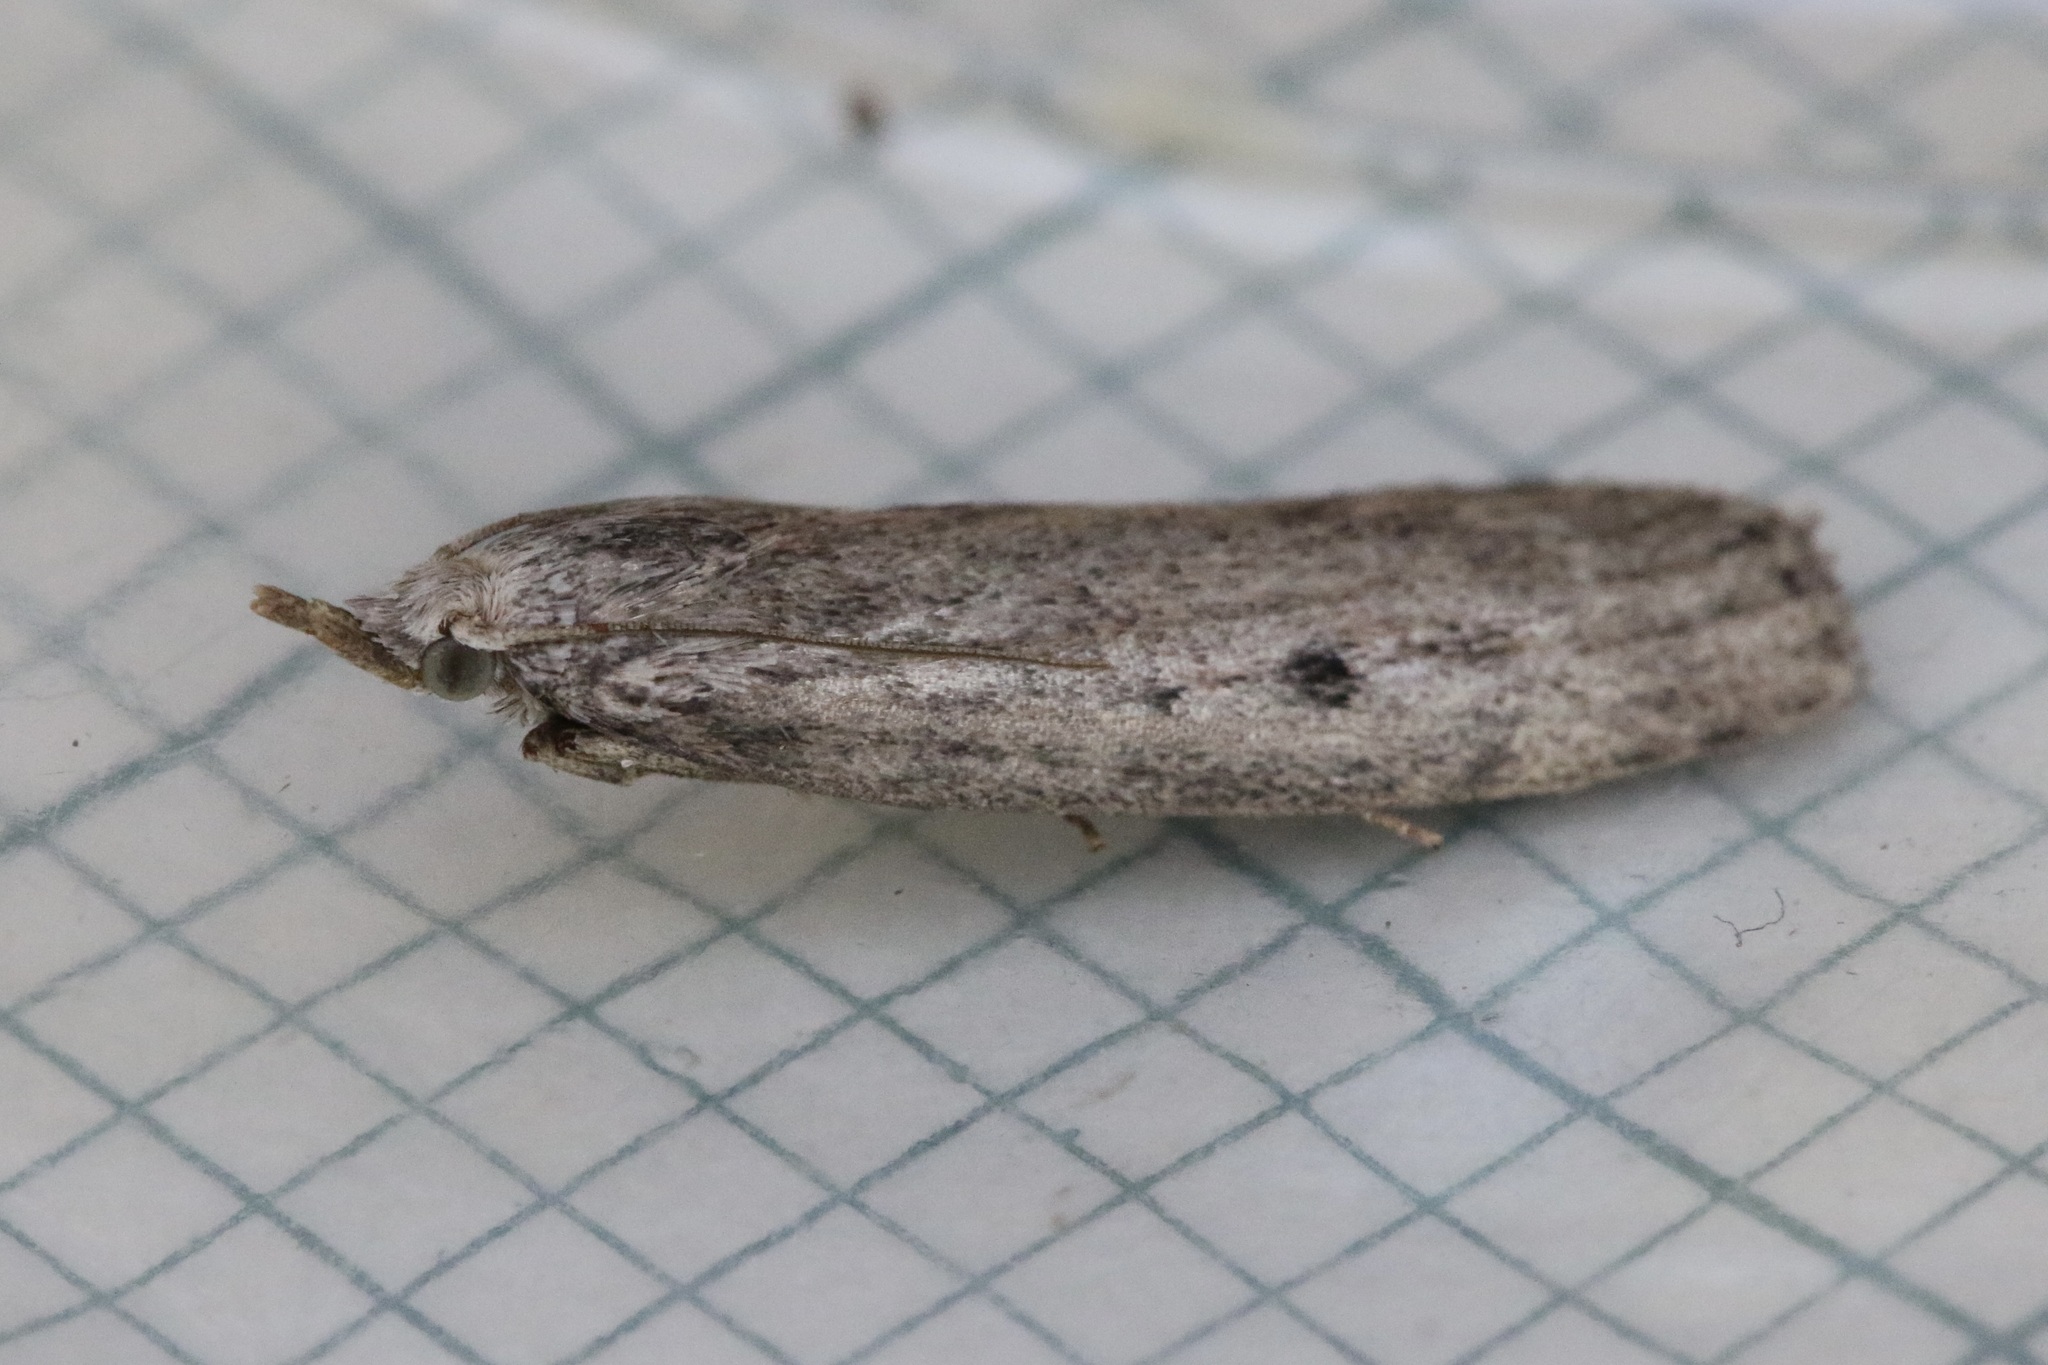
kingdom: Animalia
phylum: Arthropoda
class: Insecta
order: Lepidoptera
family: Pyralidae
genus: Aphomia
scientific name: Aphomia sociella
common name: Bee moth
